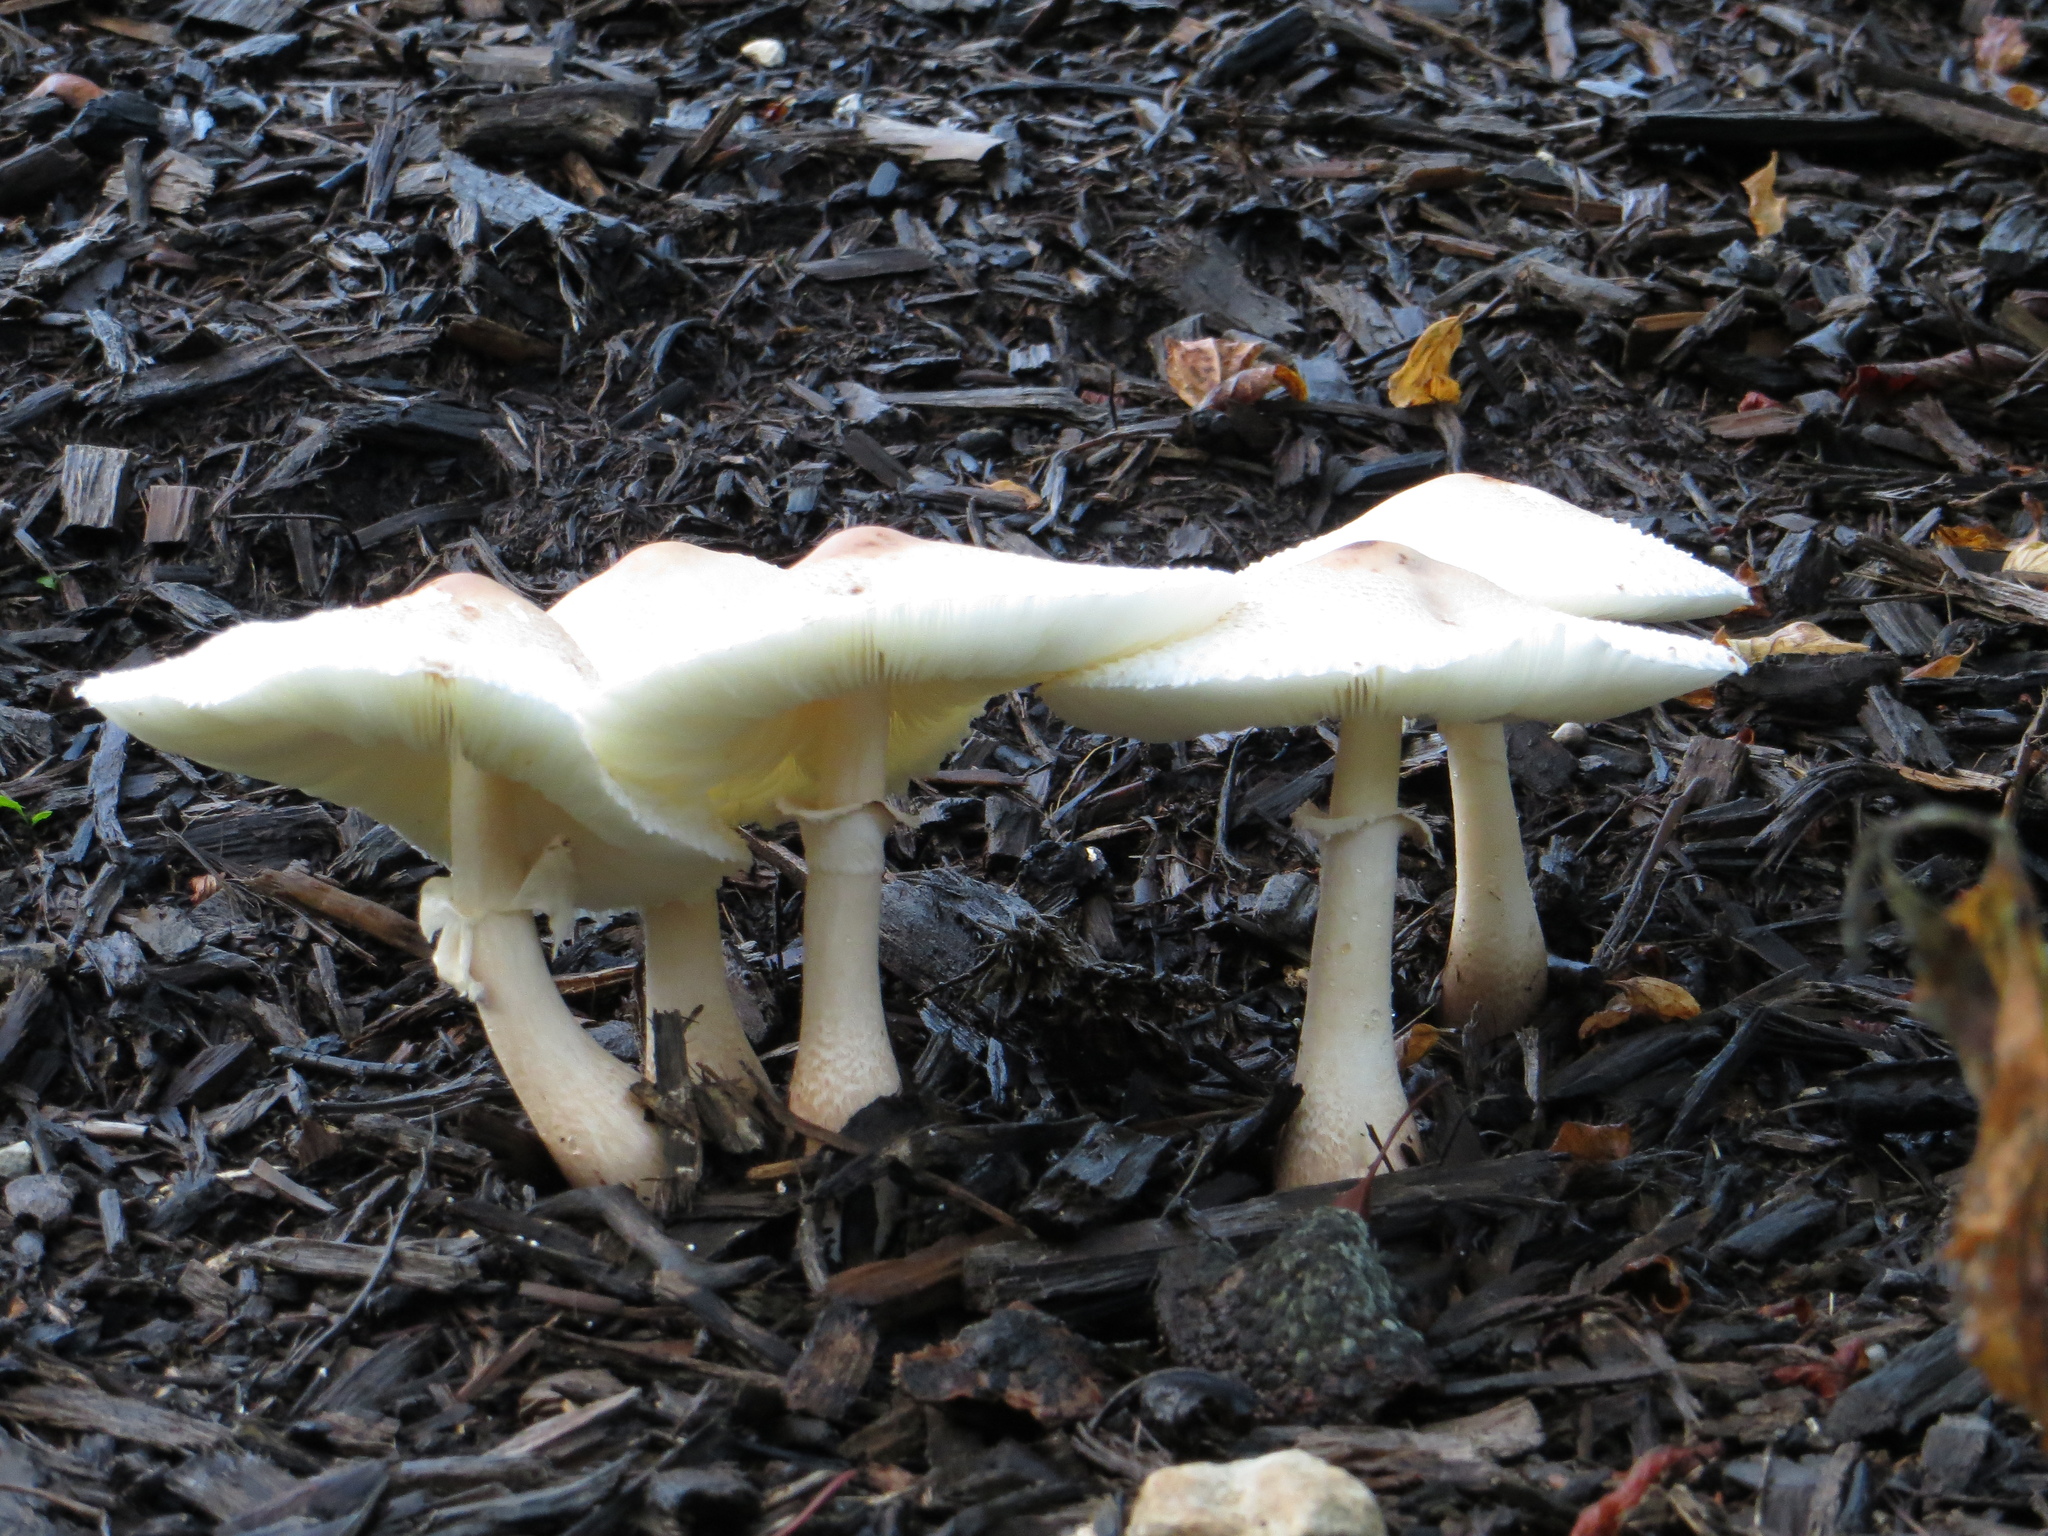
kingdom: Fungi
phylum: Basidiomycota
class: Agaricomycetes
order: Agaricales
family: Agaricaceae
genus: Leucoagaricus
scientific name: Leucoagaricus americanus
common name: Reddening lepiota
